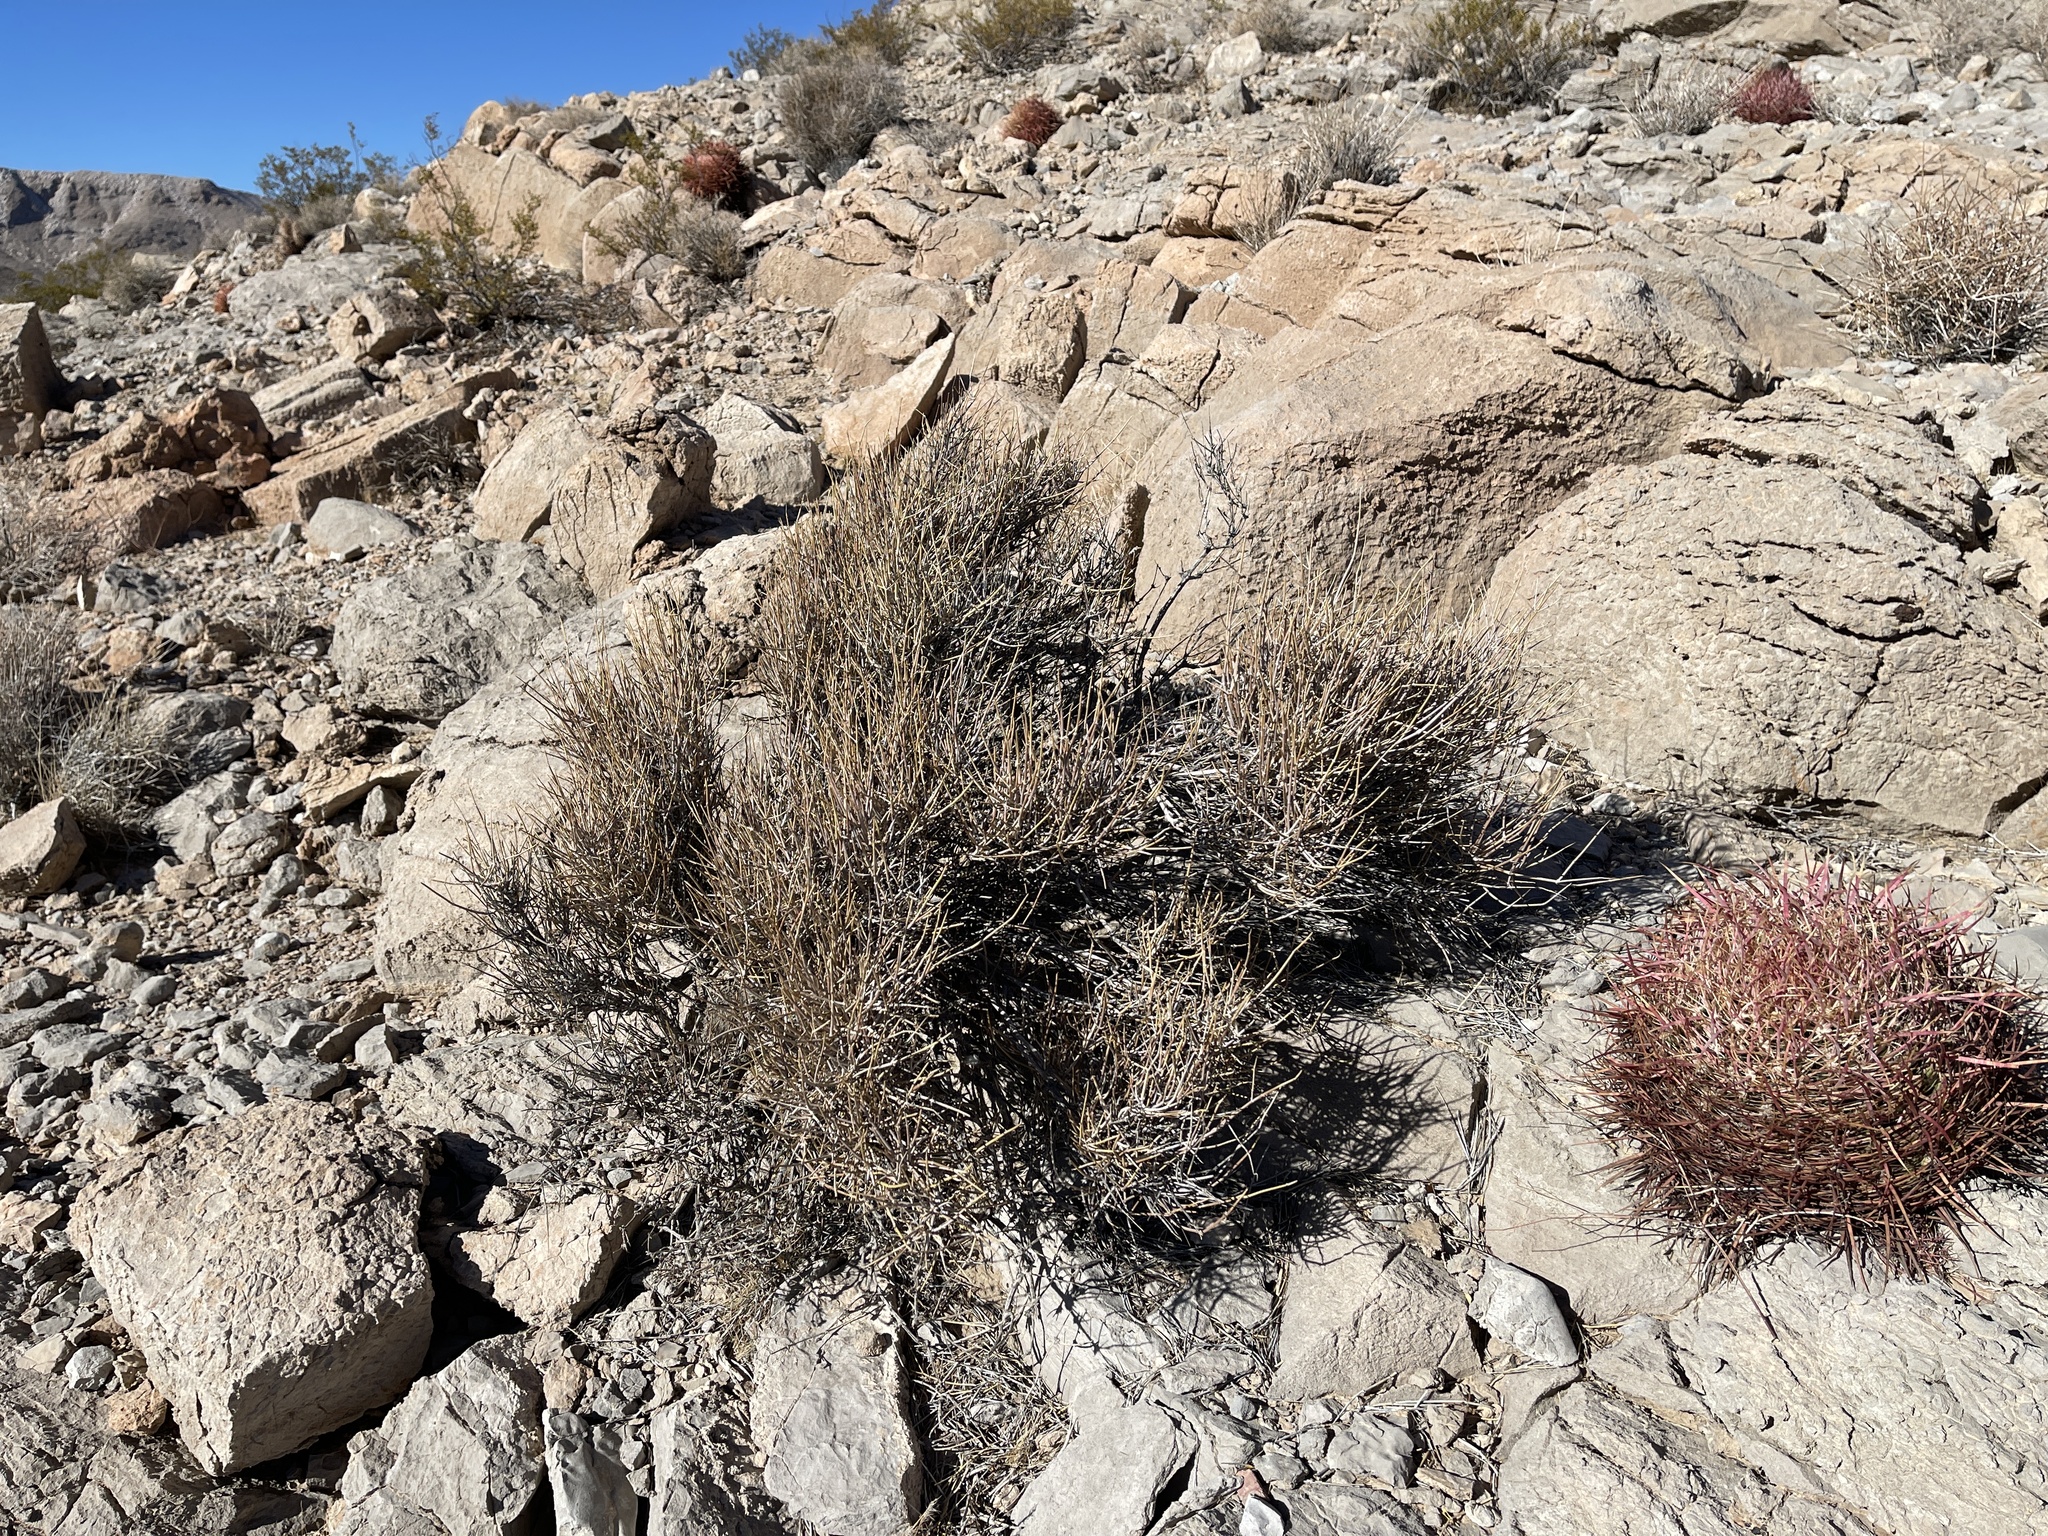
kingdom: Plantae
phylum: Tracheophyta
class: Gnetopsida
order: Ephedrales
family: Ephedraceae
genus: Ephedra
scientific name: Ephedra nevadensis
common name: Gray ephedra
